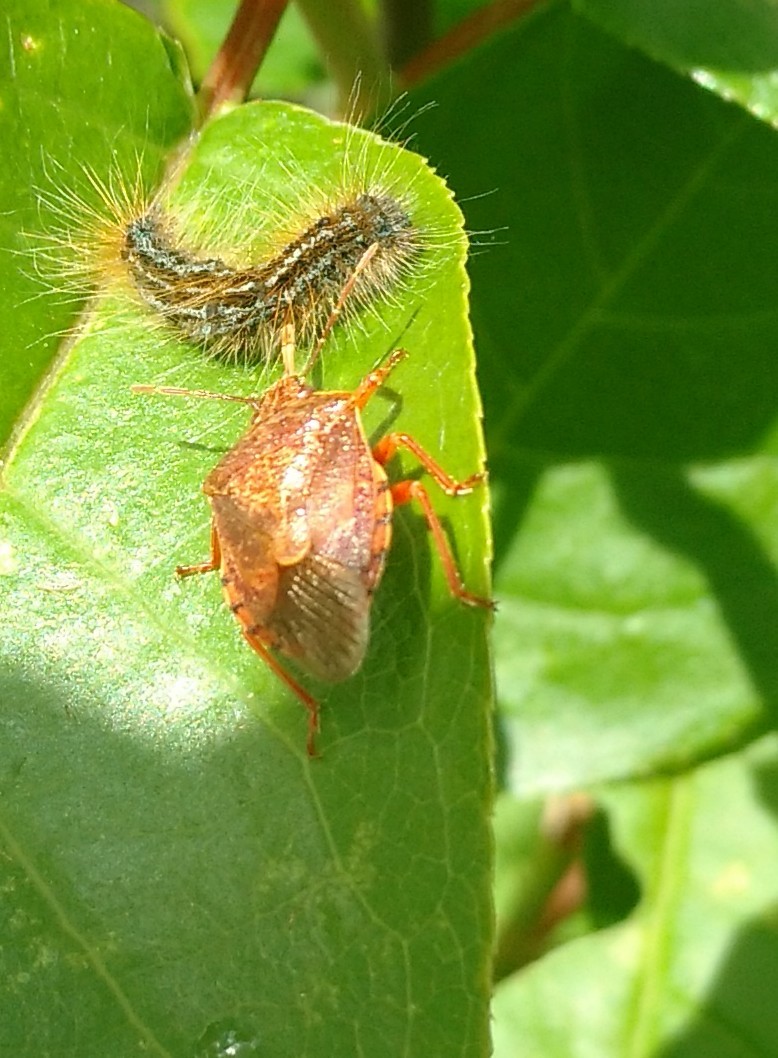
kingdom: Animalia
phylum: Arthropoda
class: Insecta
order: Hemiptera
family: Pentatomidae
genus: Podisus
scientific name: Podisus placidus
